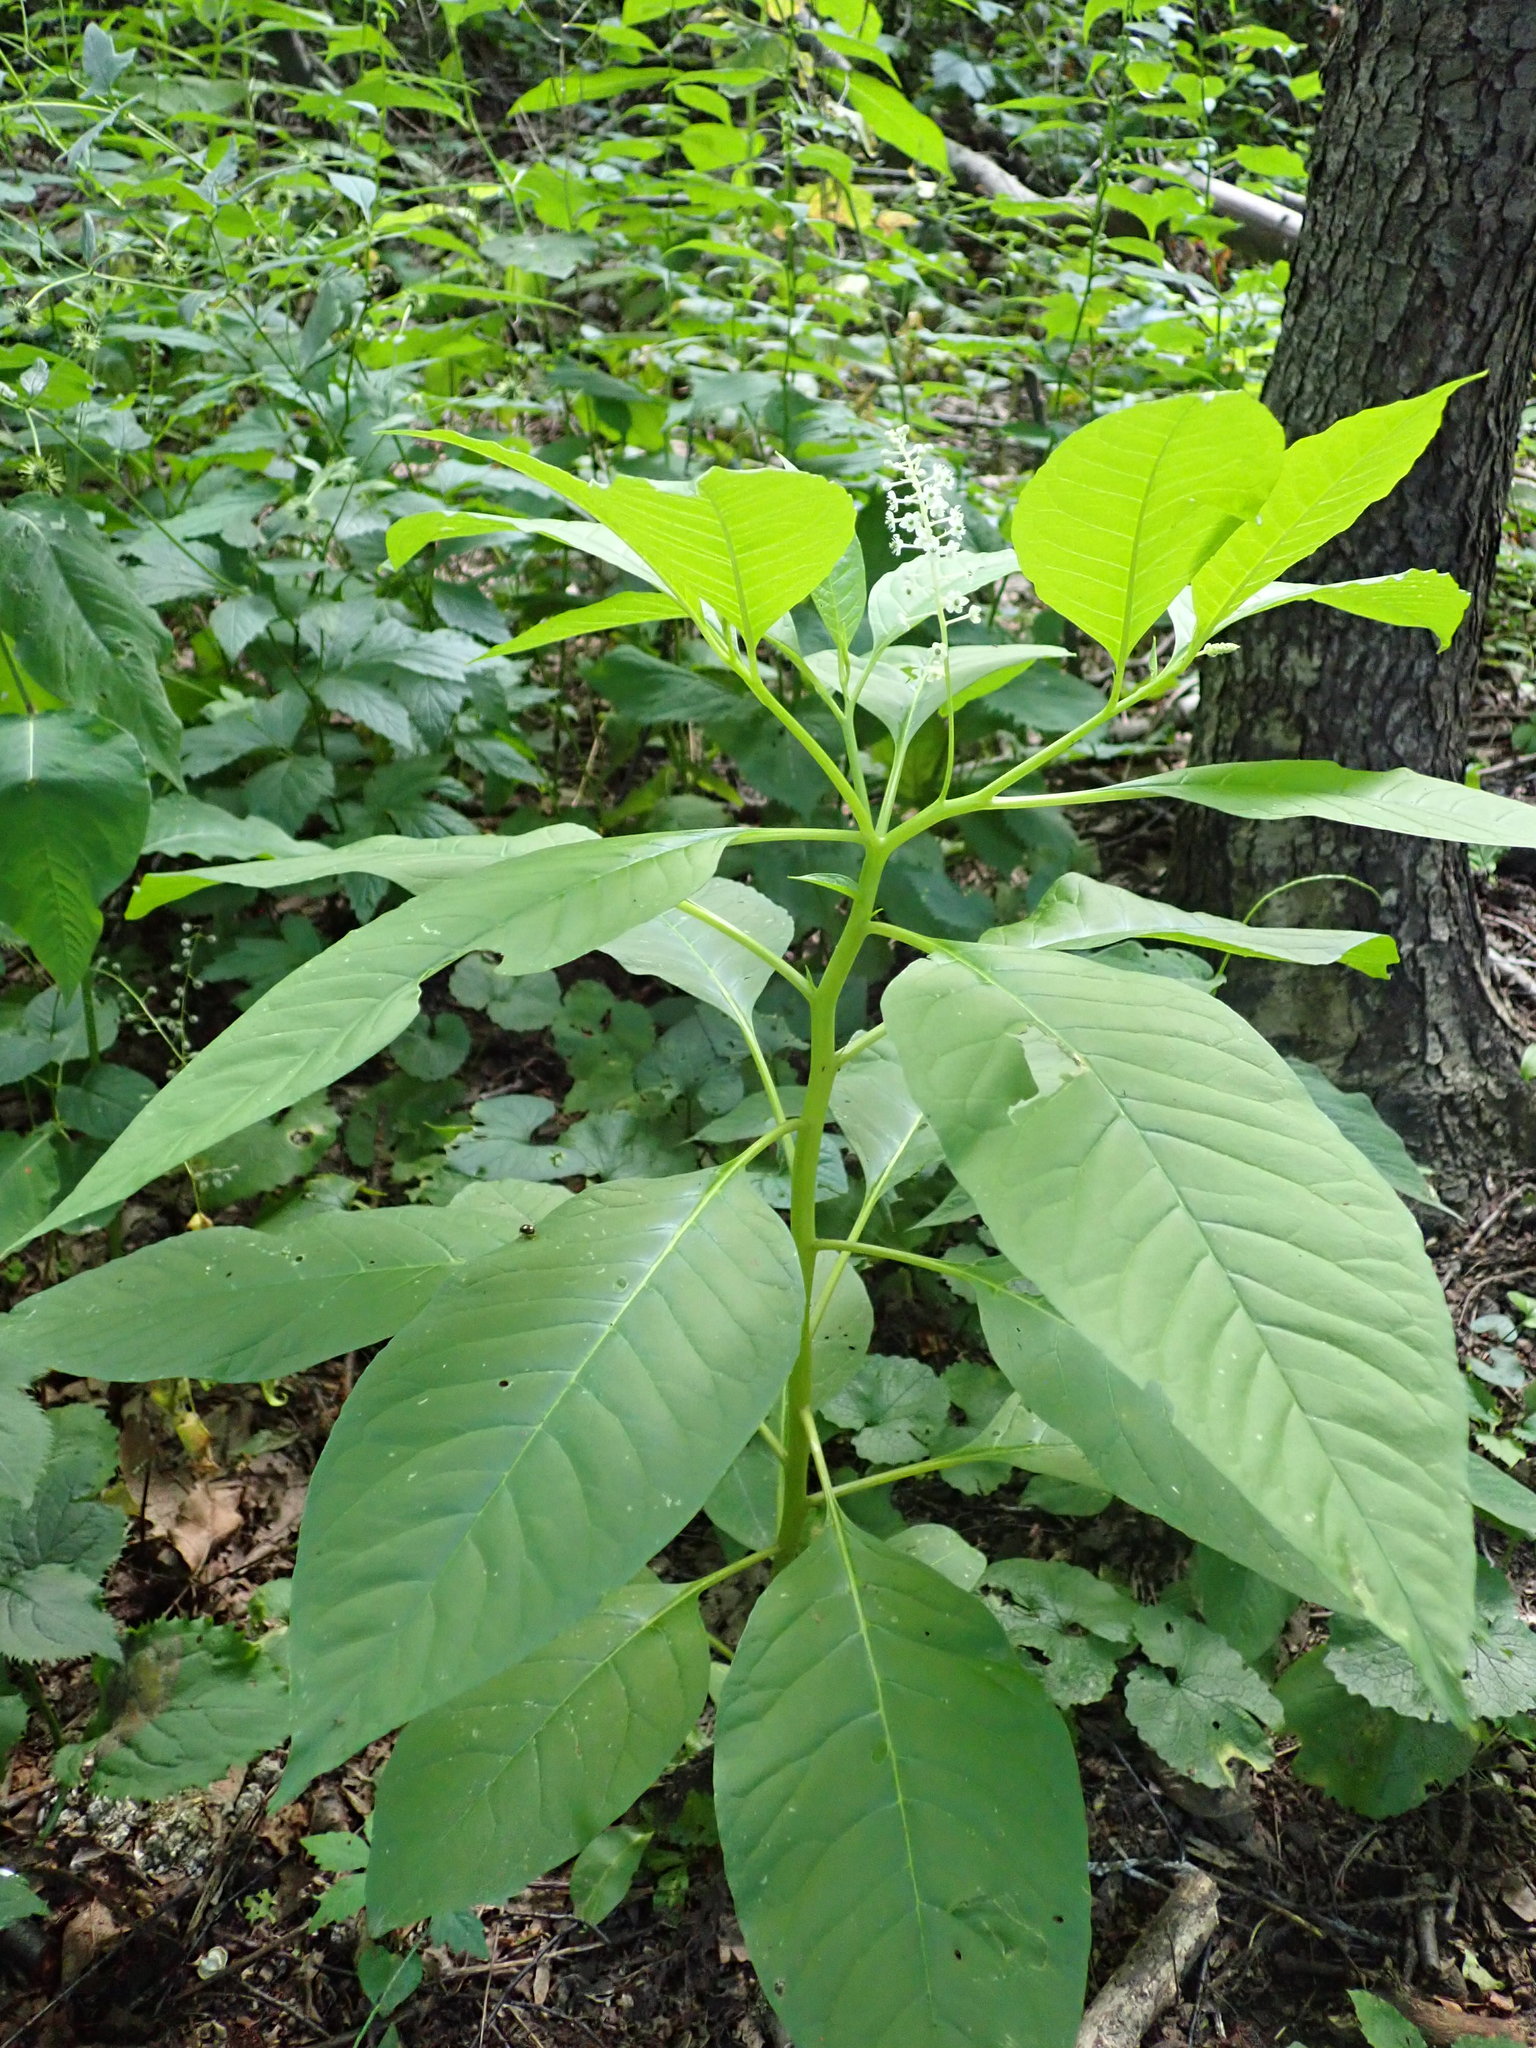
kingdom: Plantae
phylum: Tracheophyta
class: Magnoliopsida
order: Caryophyllales
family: Phytolaccaceae
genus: Phytolacca
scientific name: Phytolacca americana
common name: American pokeweed
